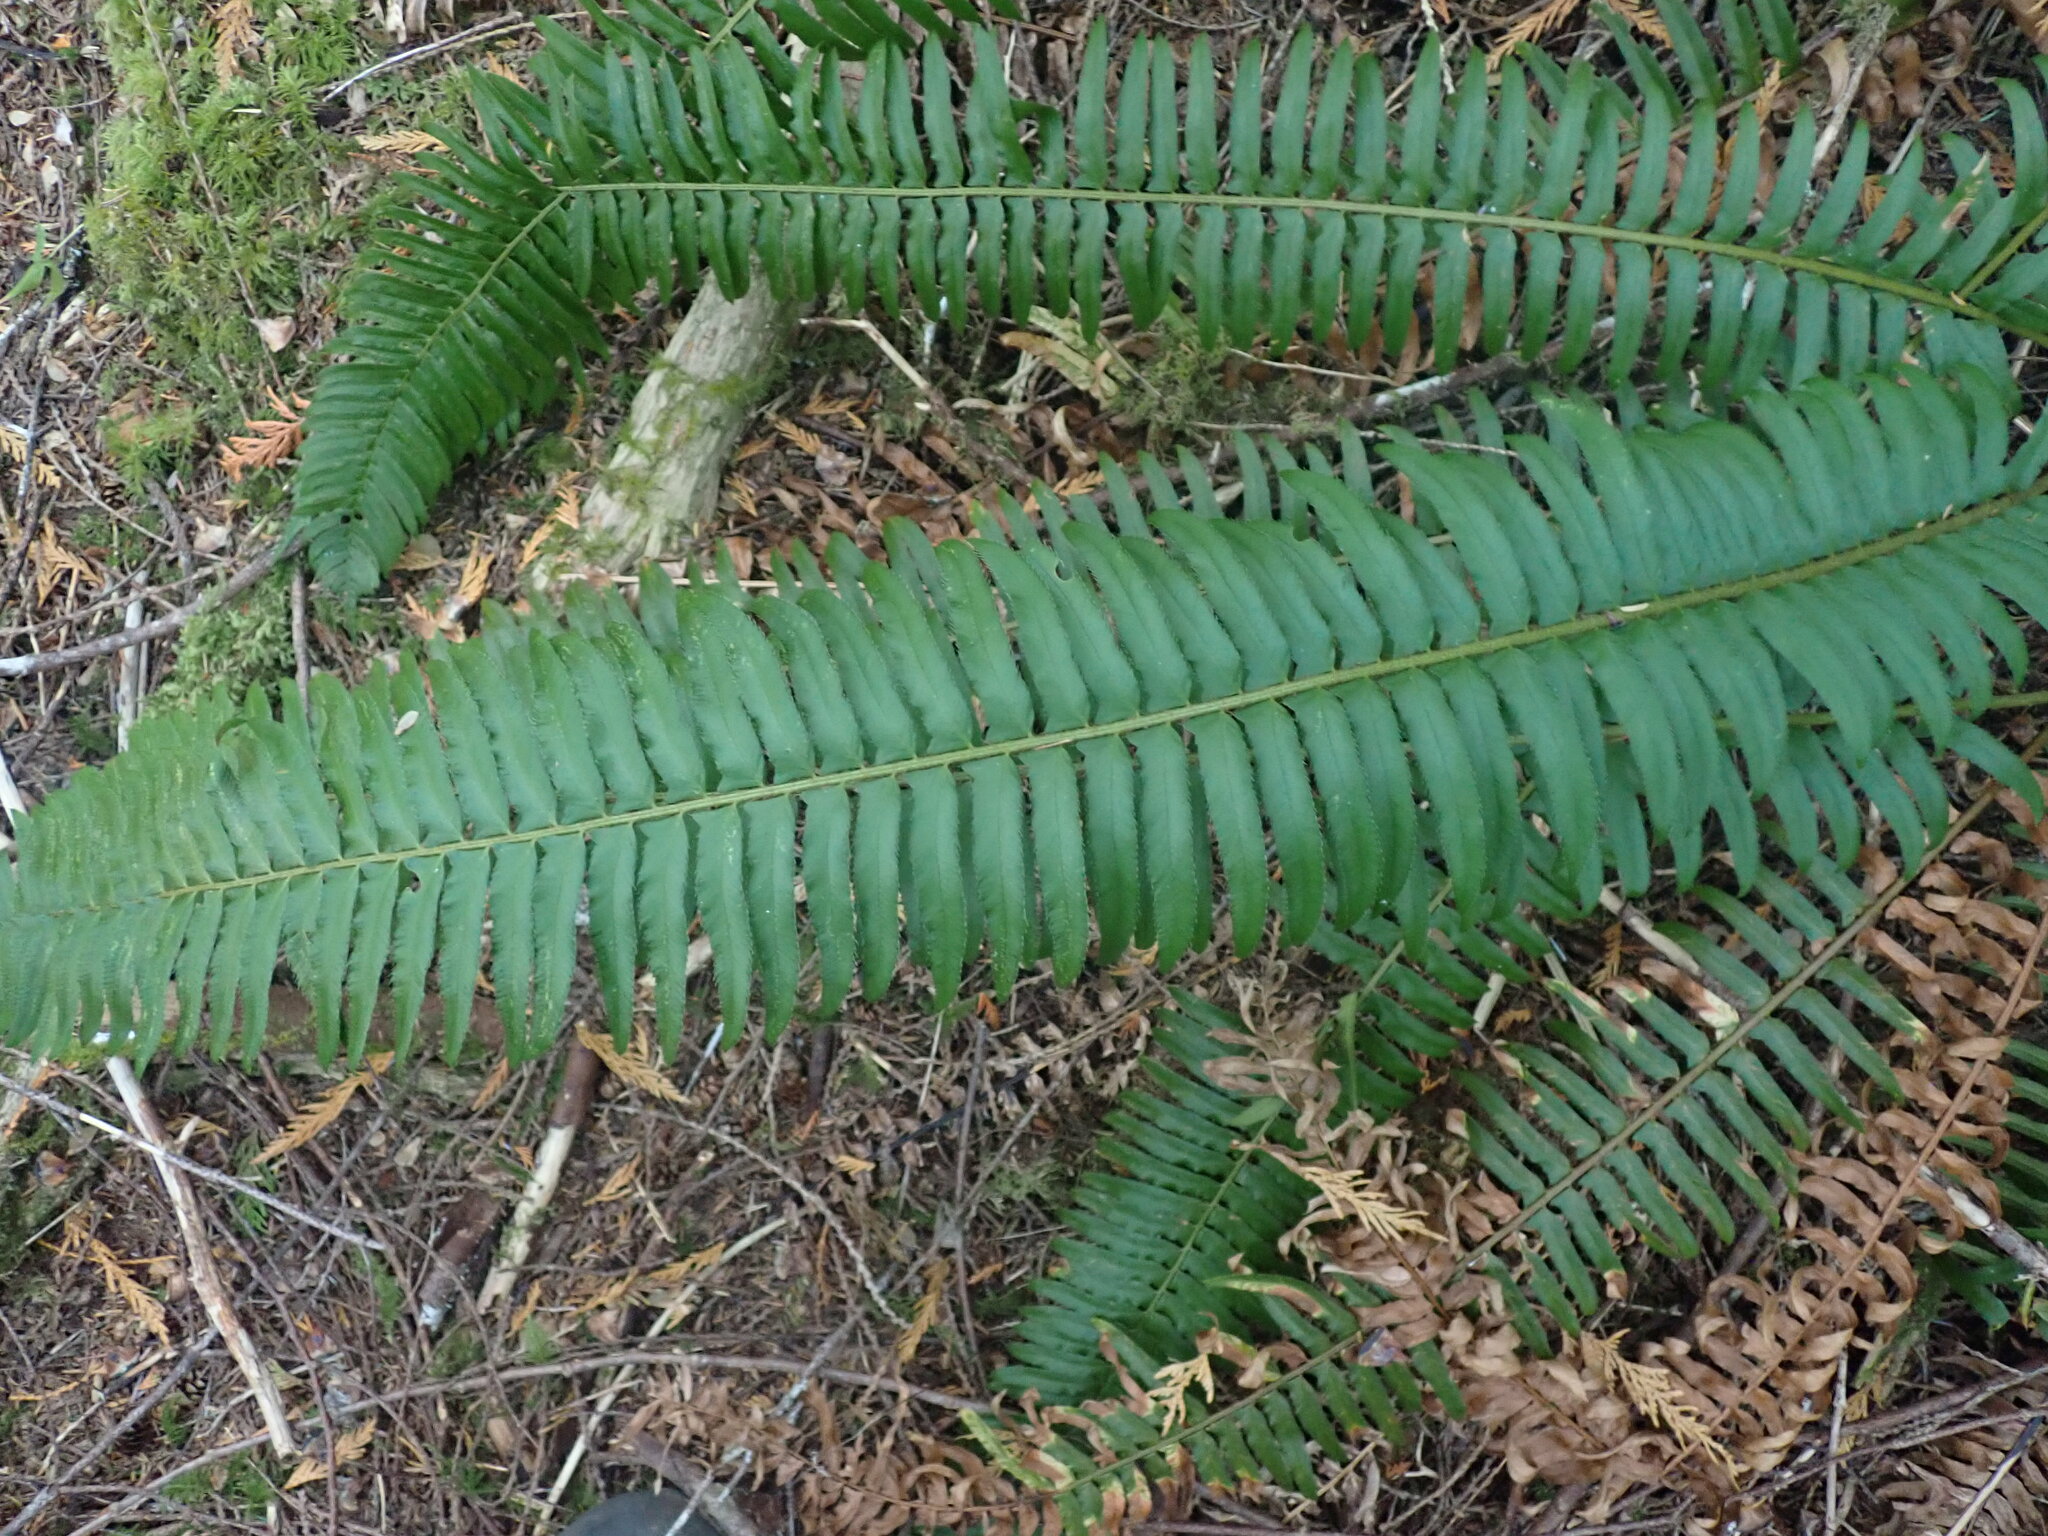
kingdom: Plantae
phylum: Tracheophyta
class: Polypodiopsida
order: Polypodiales
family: Dryopteridaceae
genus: Polystichum
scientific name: Polystichum munitum
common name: Western sword-fern
